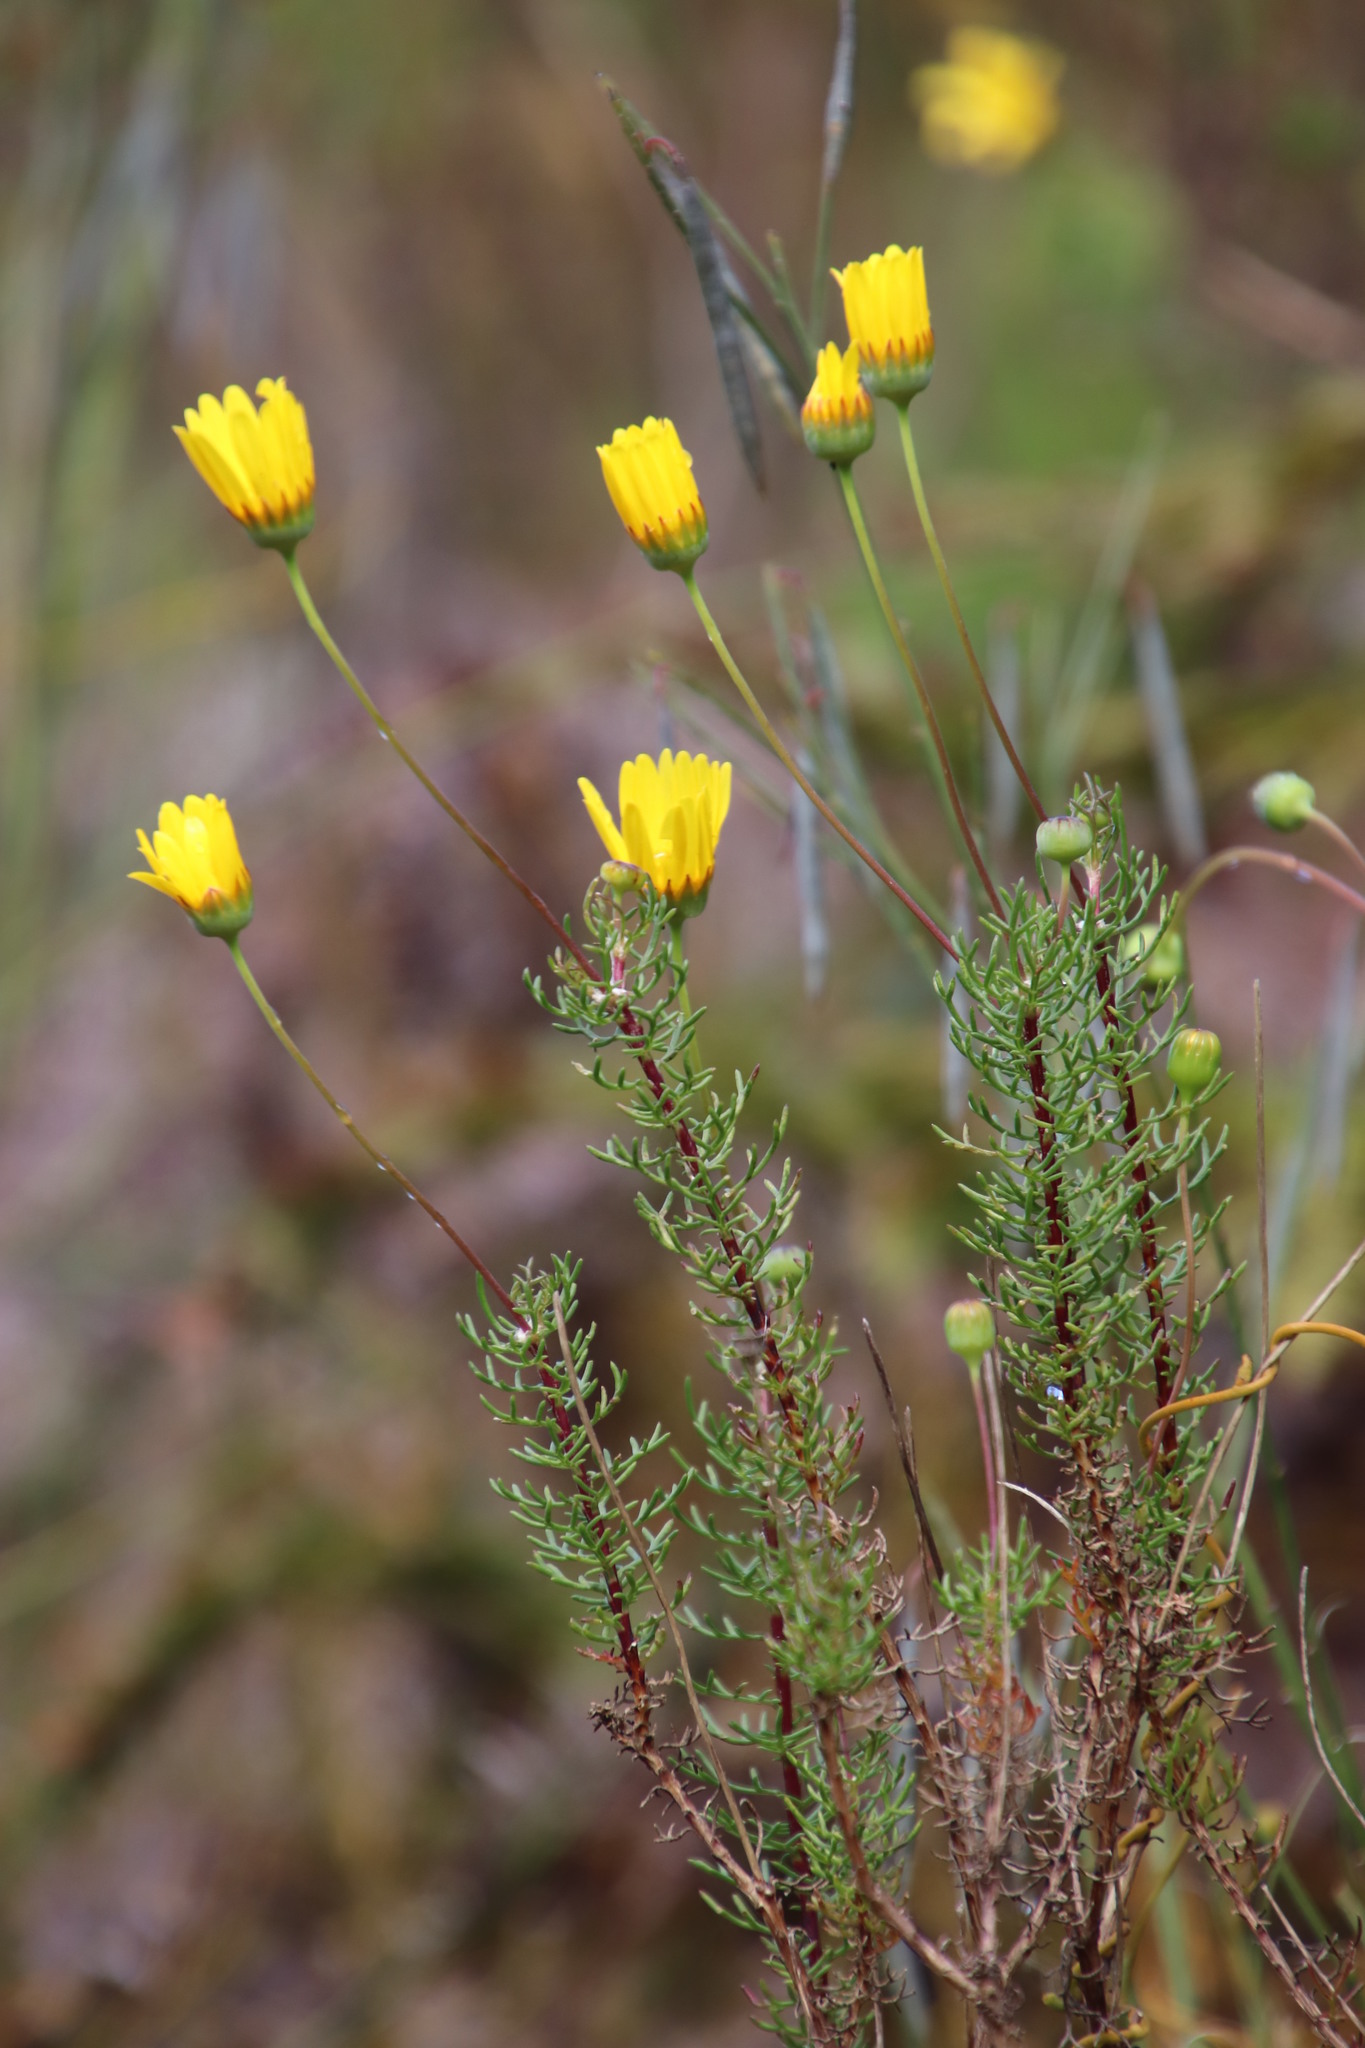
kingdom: Plantae
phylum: Tracheophyta
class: Magnoliopsida
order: Asterales
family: Asteraceae
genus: Euryops
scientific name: Euryops abrotanifolius
